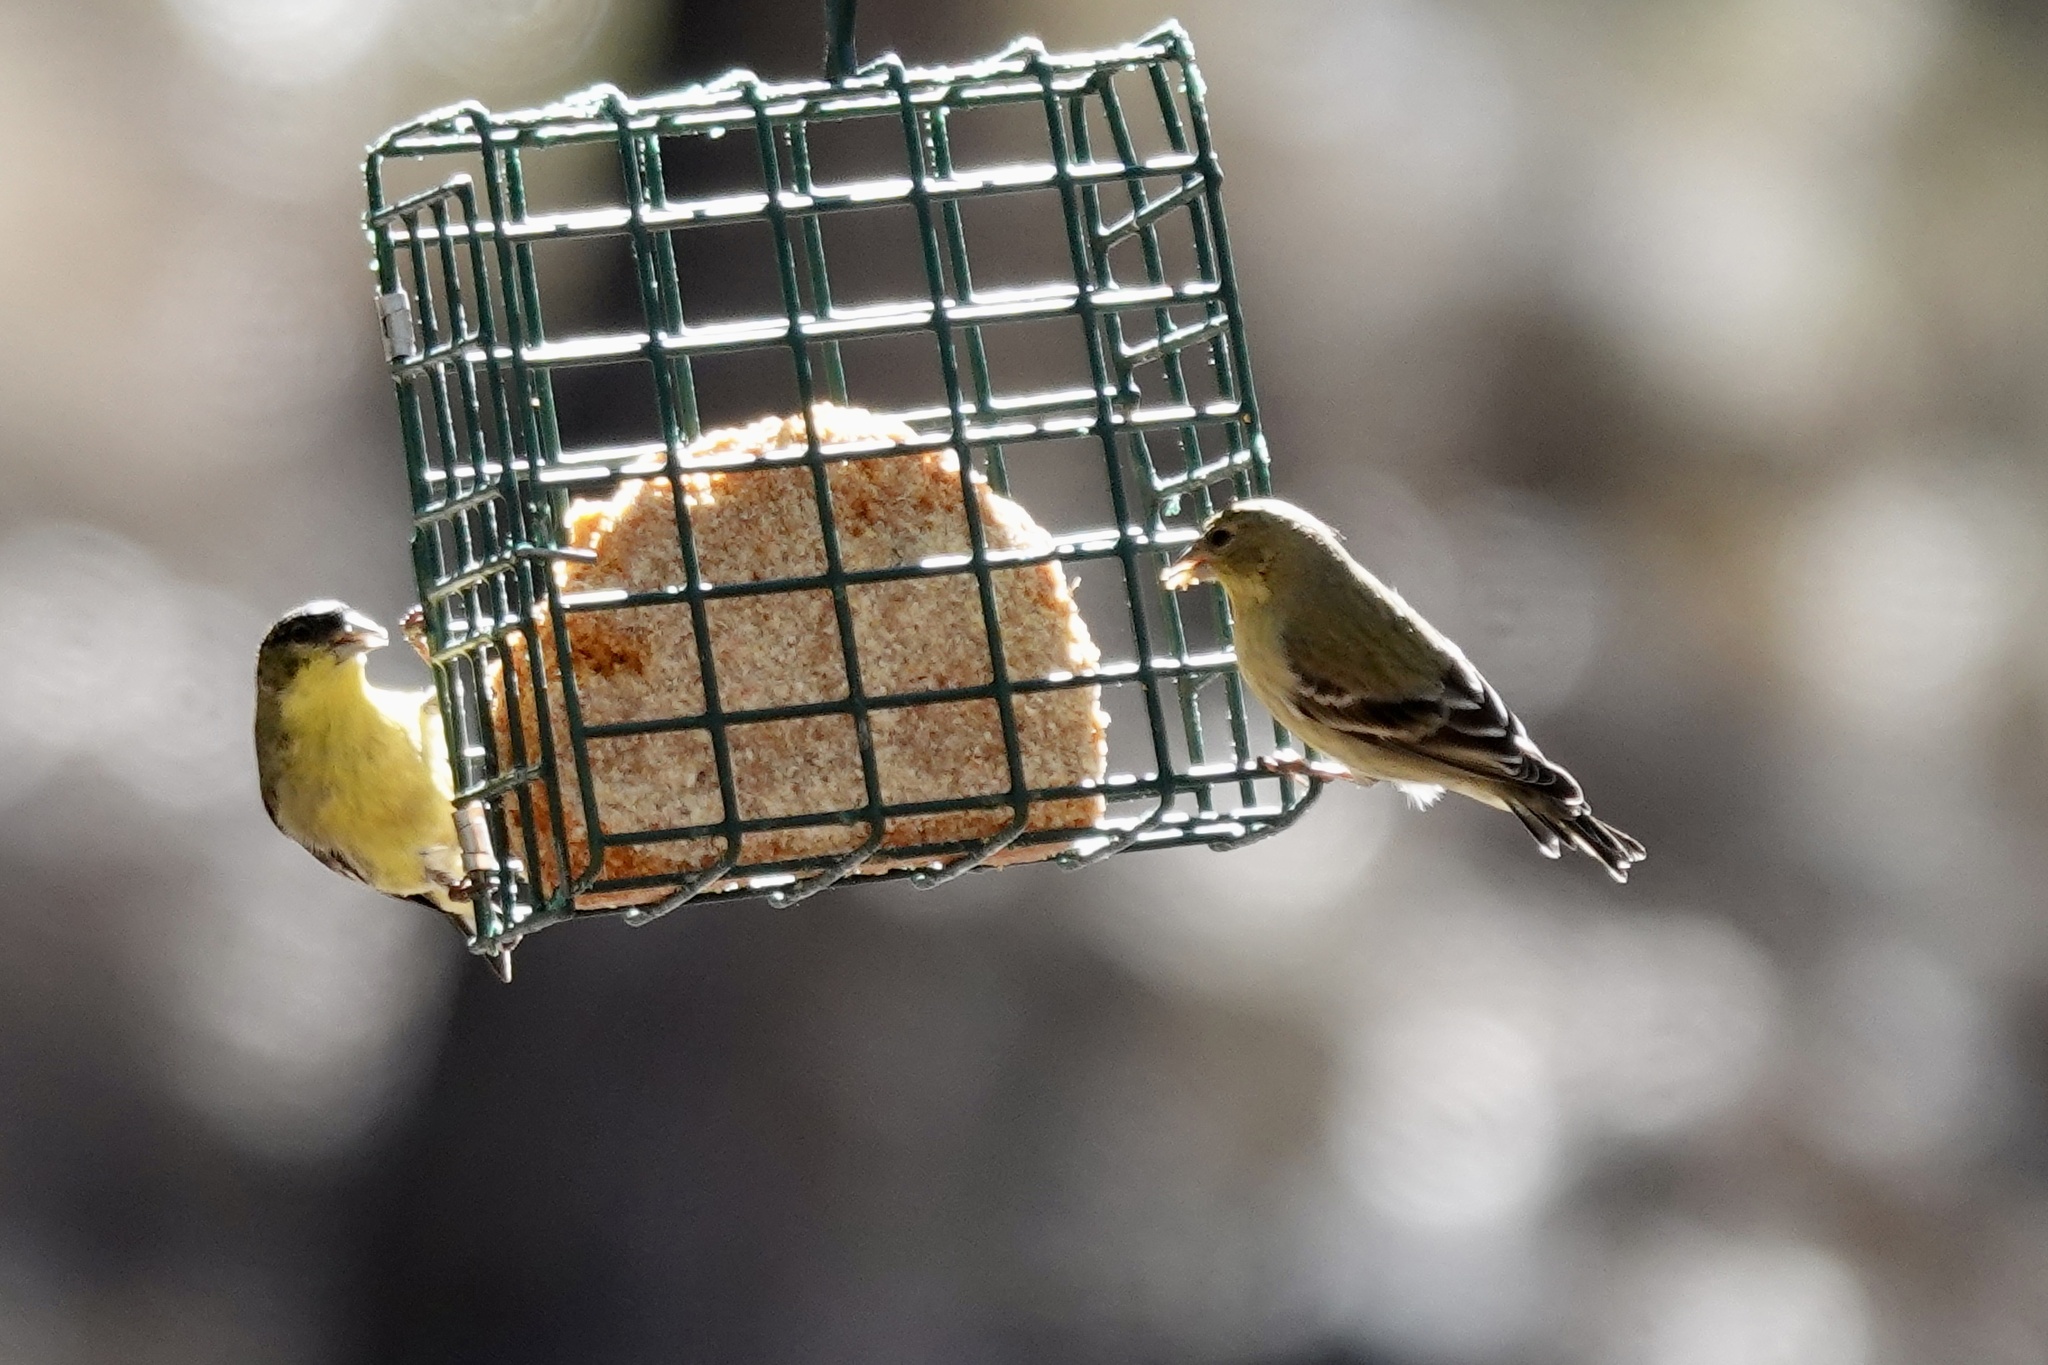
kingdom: Animalia
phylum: Chordata
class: Aves
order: Passeriformes
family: Fringillidae
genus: Spinus
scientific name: Spinus psaltria
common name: Lesser goldfinch
